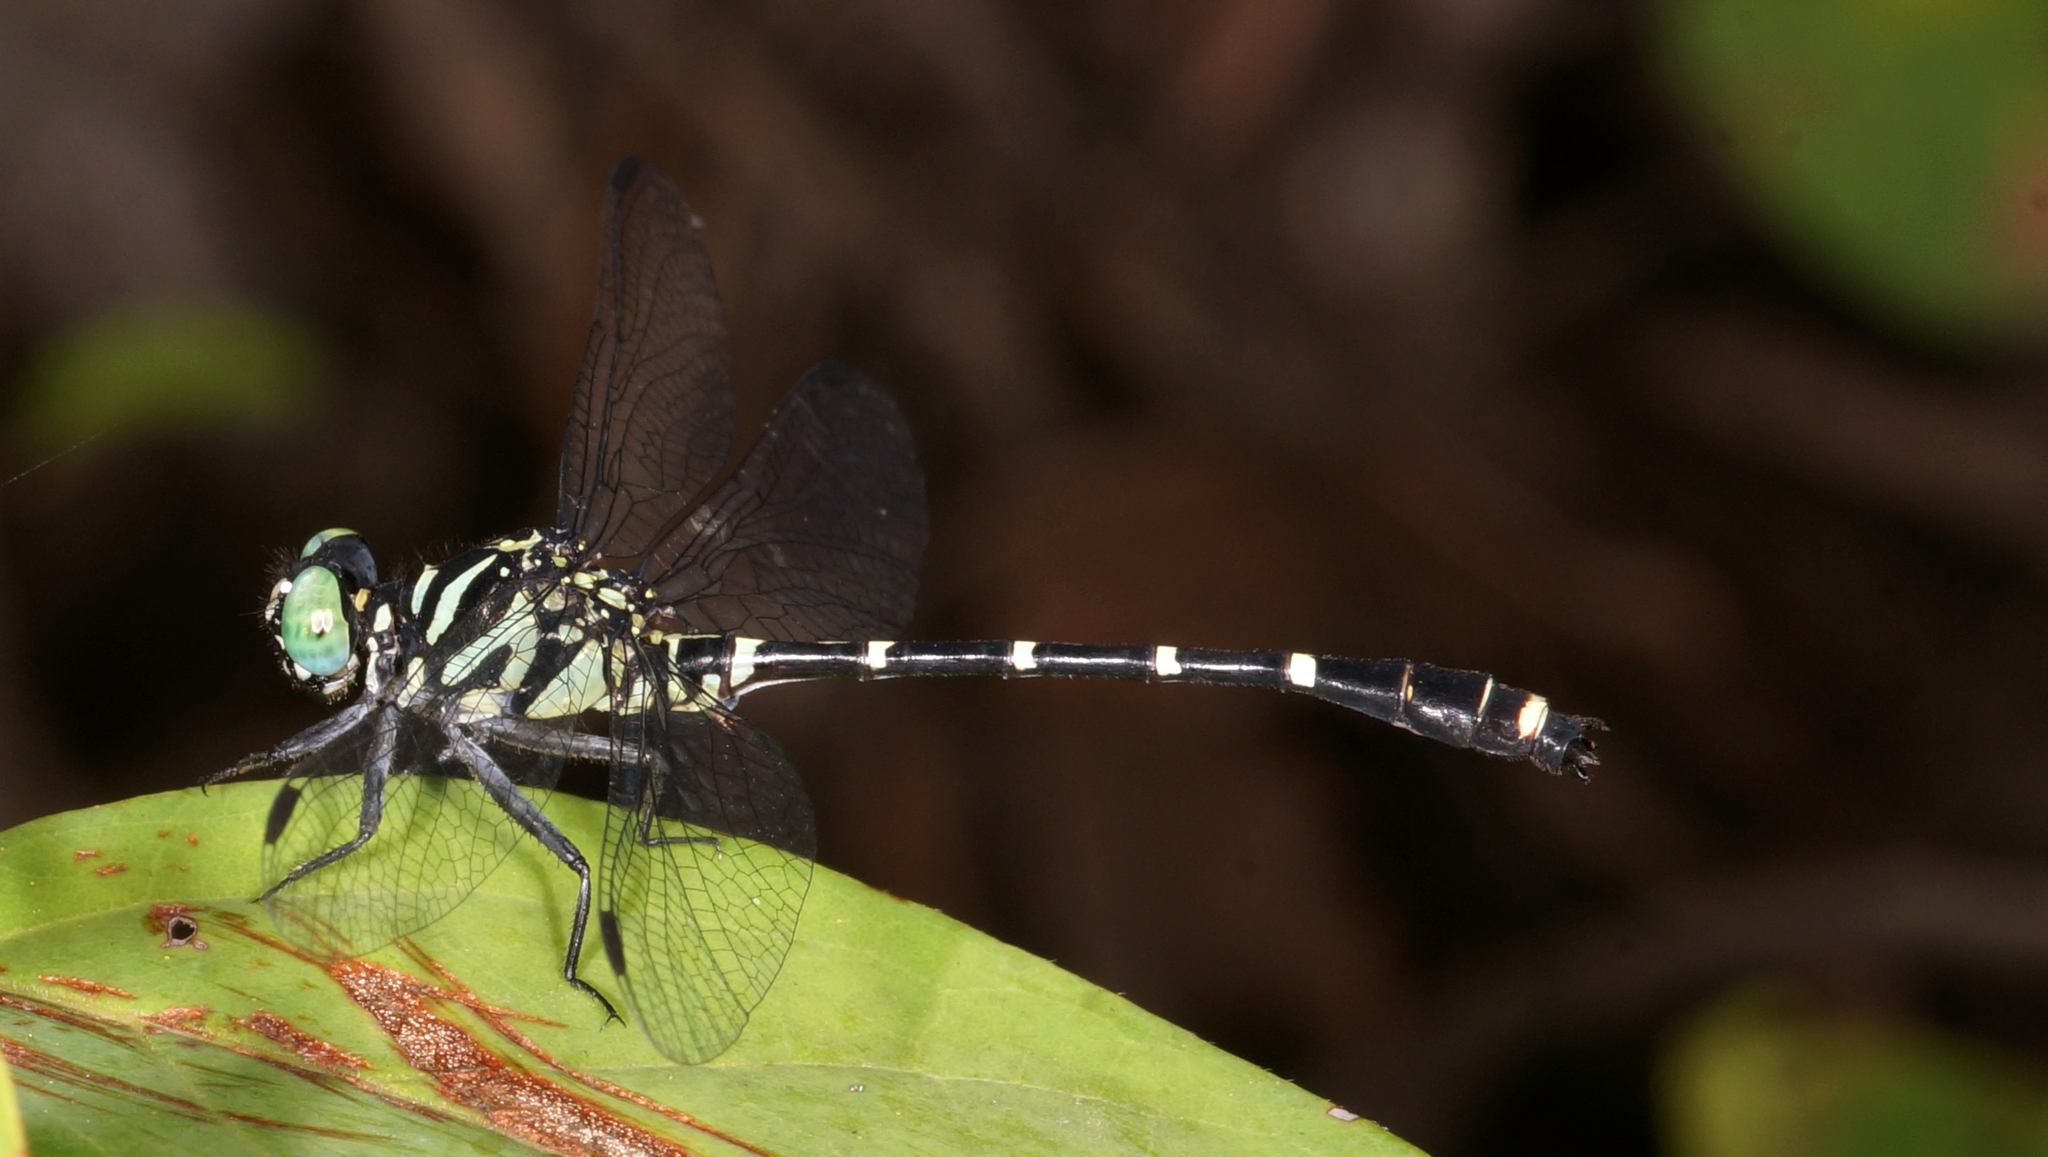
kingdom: Animalia
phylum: Arthropoda
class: Insecta
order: Odonata
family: Gomphidae
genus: Burmagomphus
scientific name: Burmagomphus williamsoni
